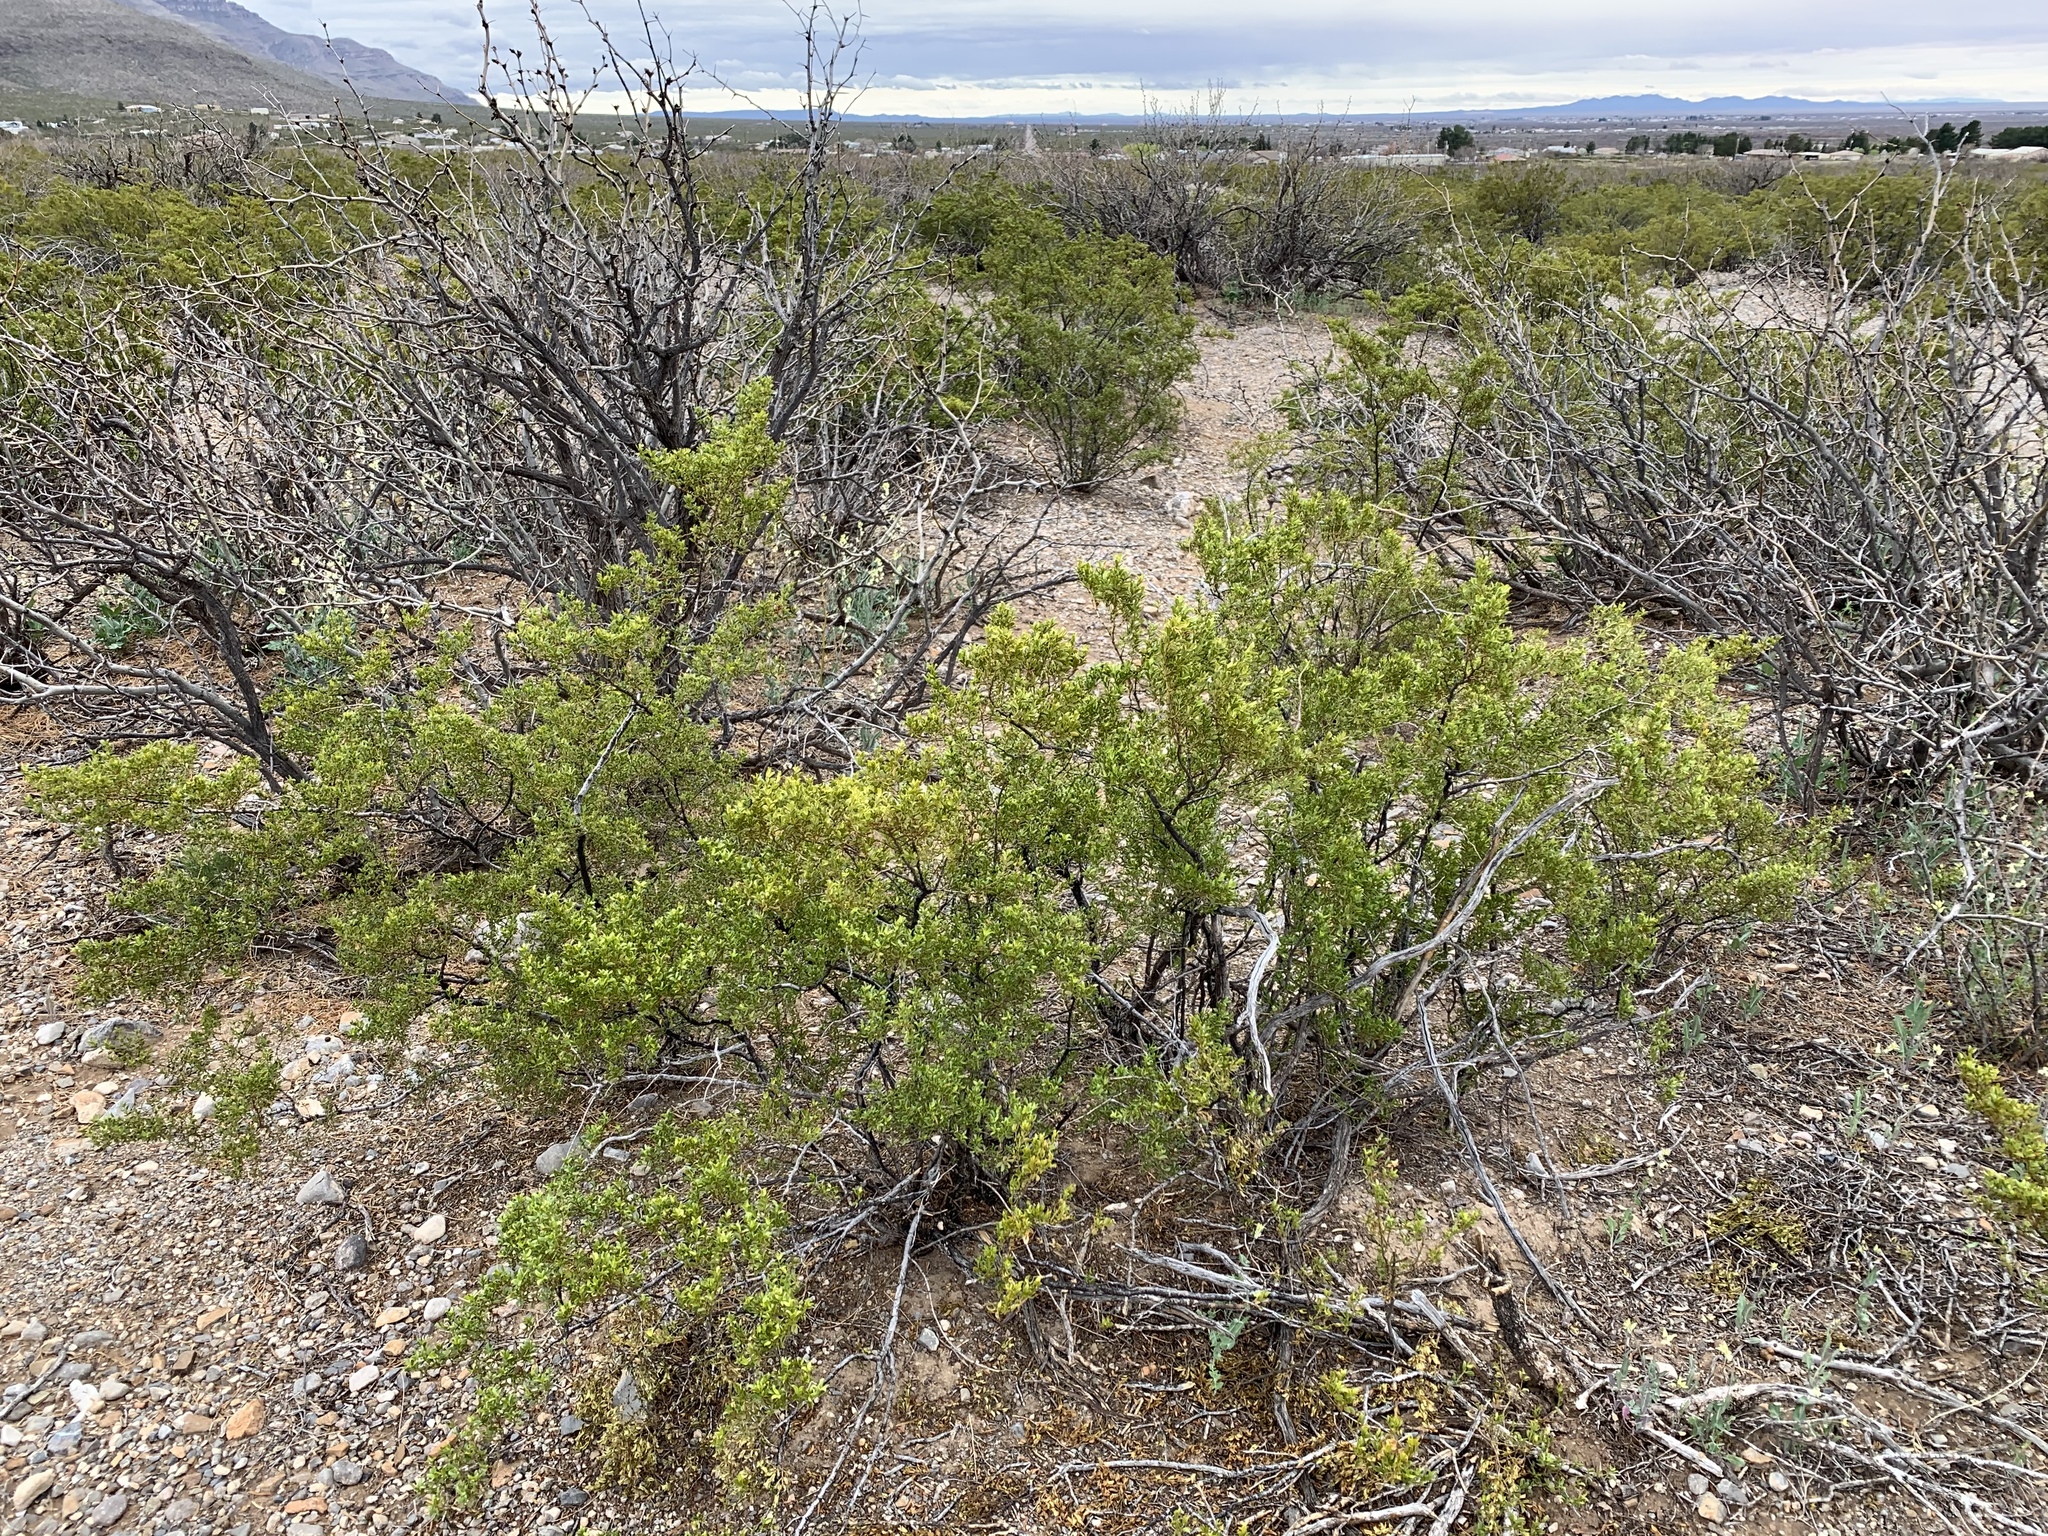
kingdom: Plantae
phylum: Tracheophyta
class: Magnoliopsida
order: Zygophyllales
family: Zygophyllaceae
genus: Larrea
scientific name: Larrea tridentata
